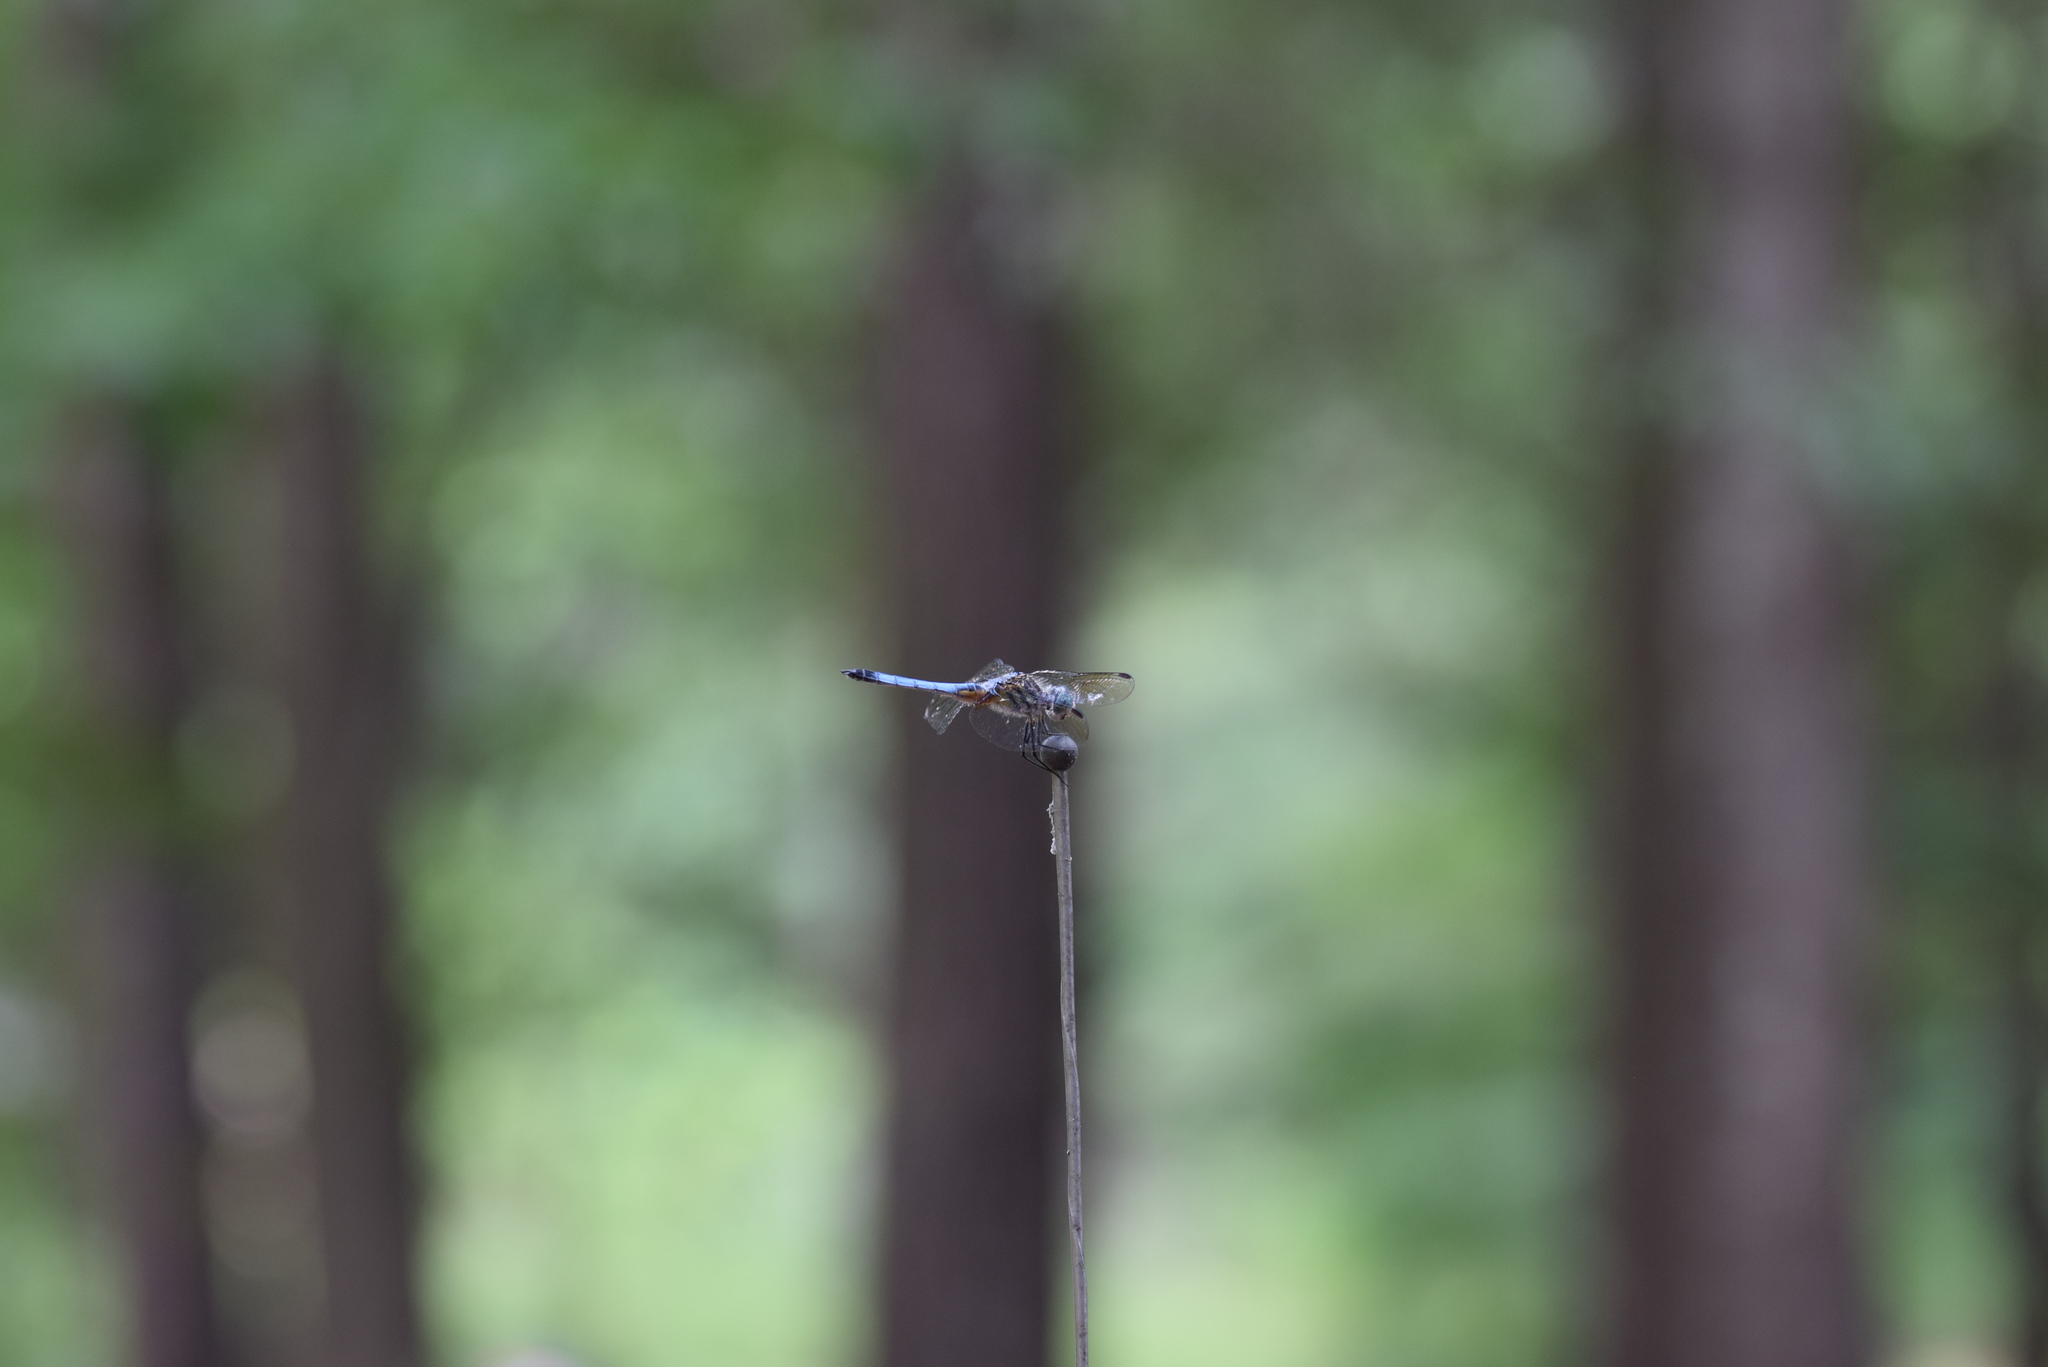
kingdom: Animalia
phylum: Arthropoda
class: Insecta
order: Odonata
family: Libellulidae
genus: Pachydiplax
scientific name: Pachydiplax longipennis
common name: Blue dasher
